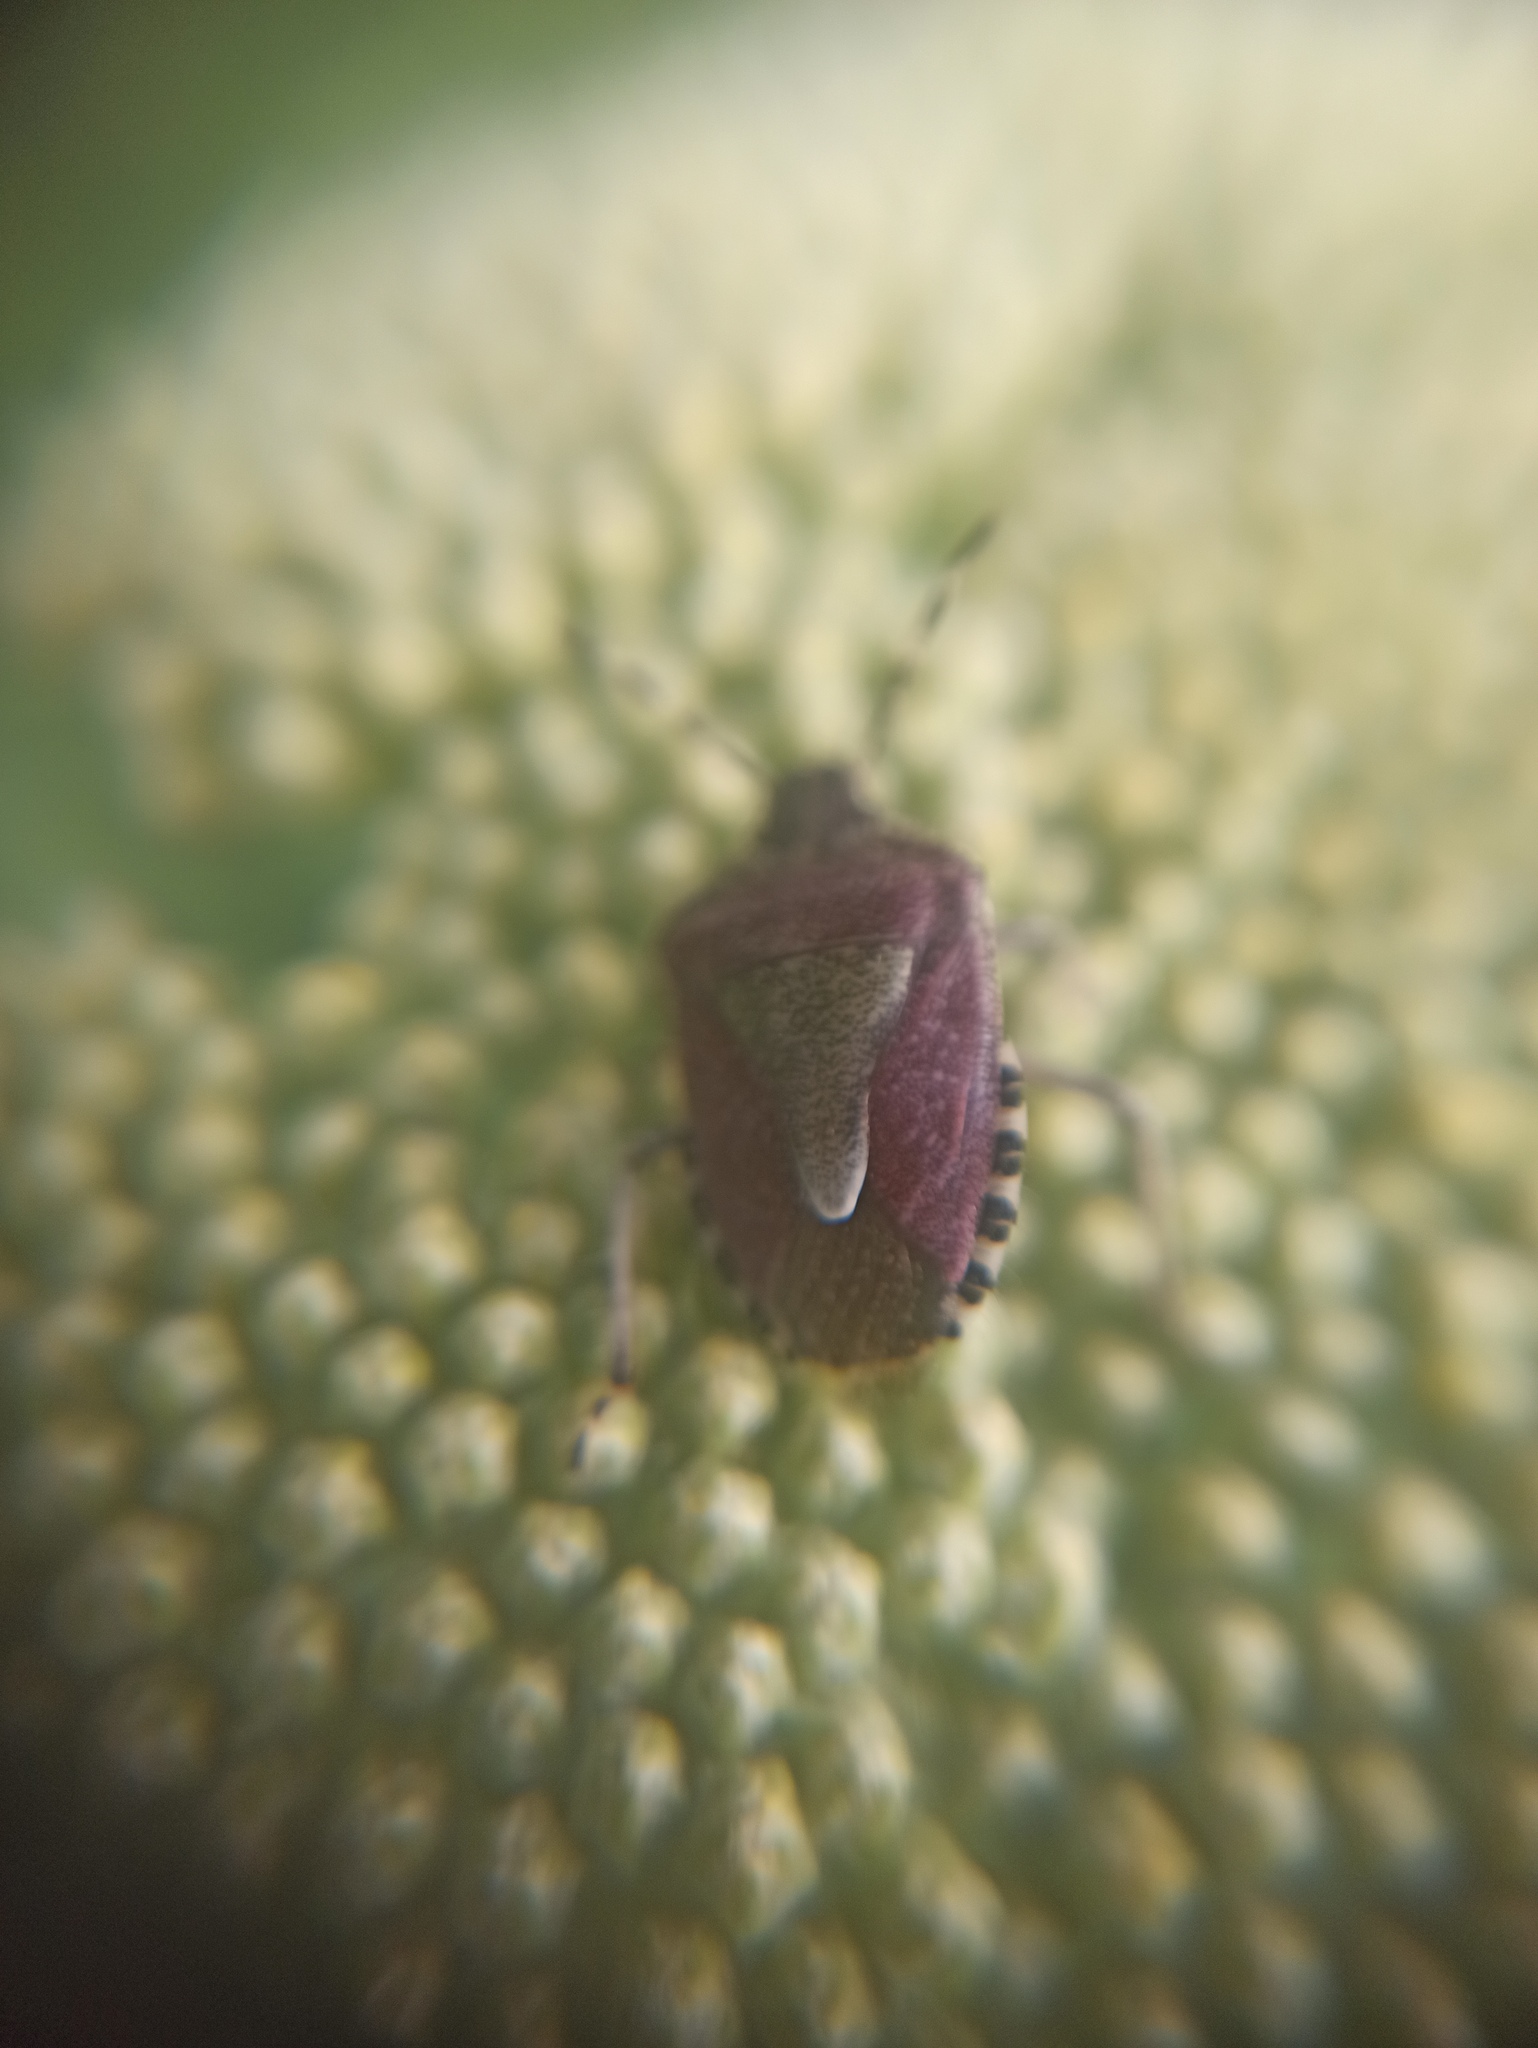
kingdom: Animalia
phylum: Arthropoda
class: Insecta
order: Hemiptera
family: Pentatomidae
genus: Dolycoris
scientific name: Dolycoris baccarum
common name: Sloe bug
